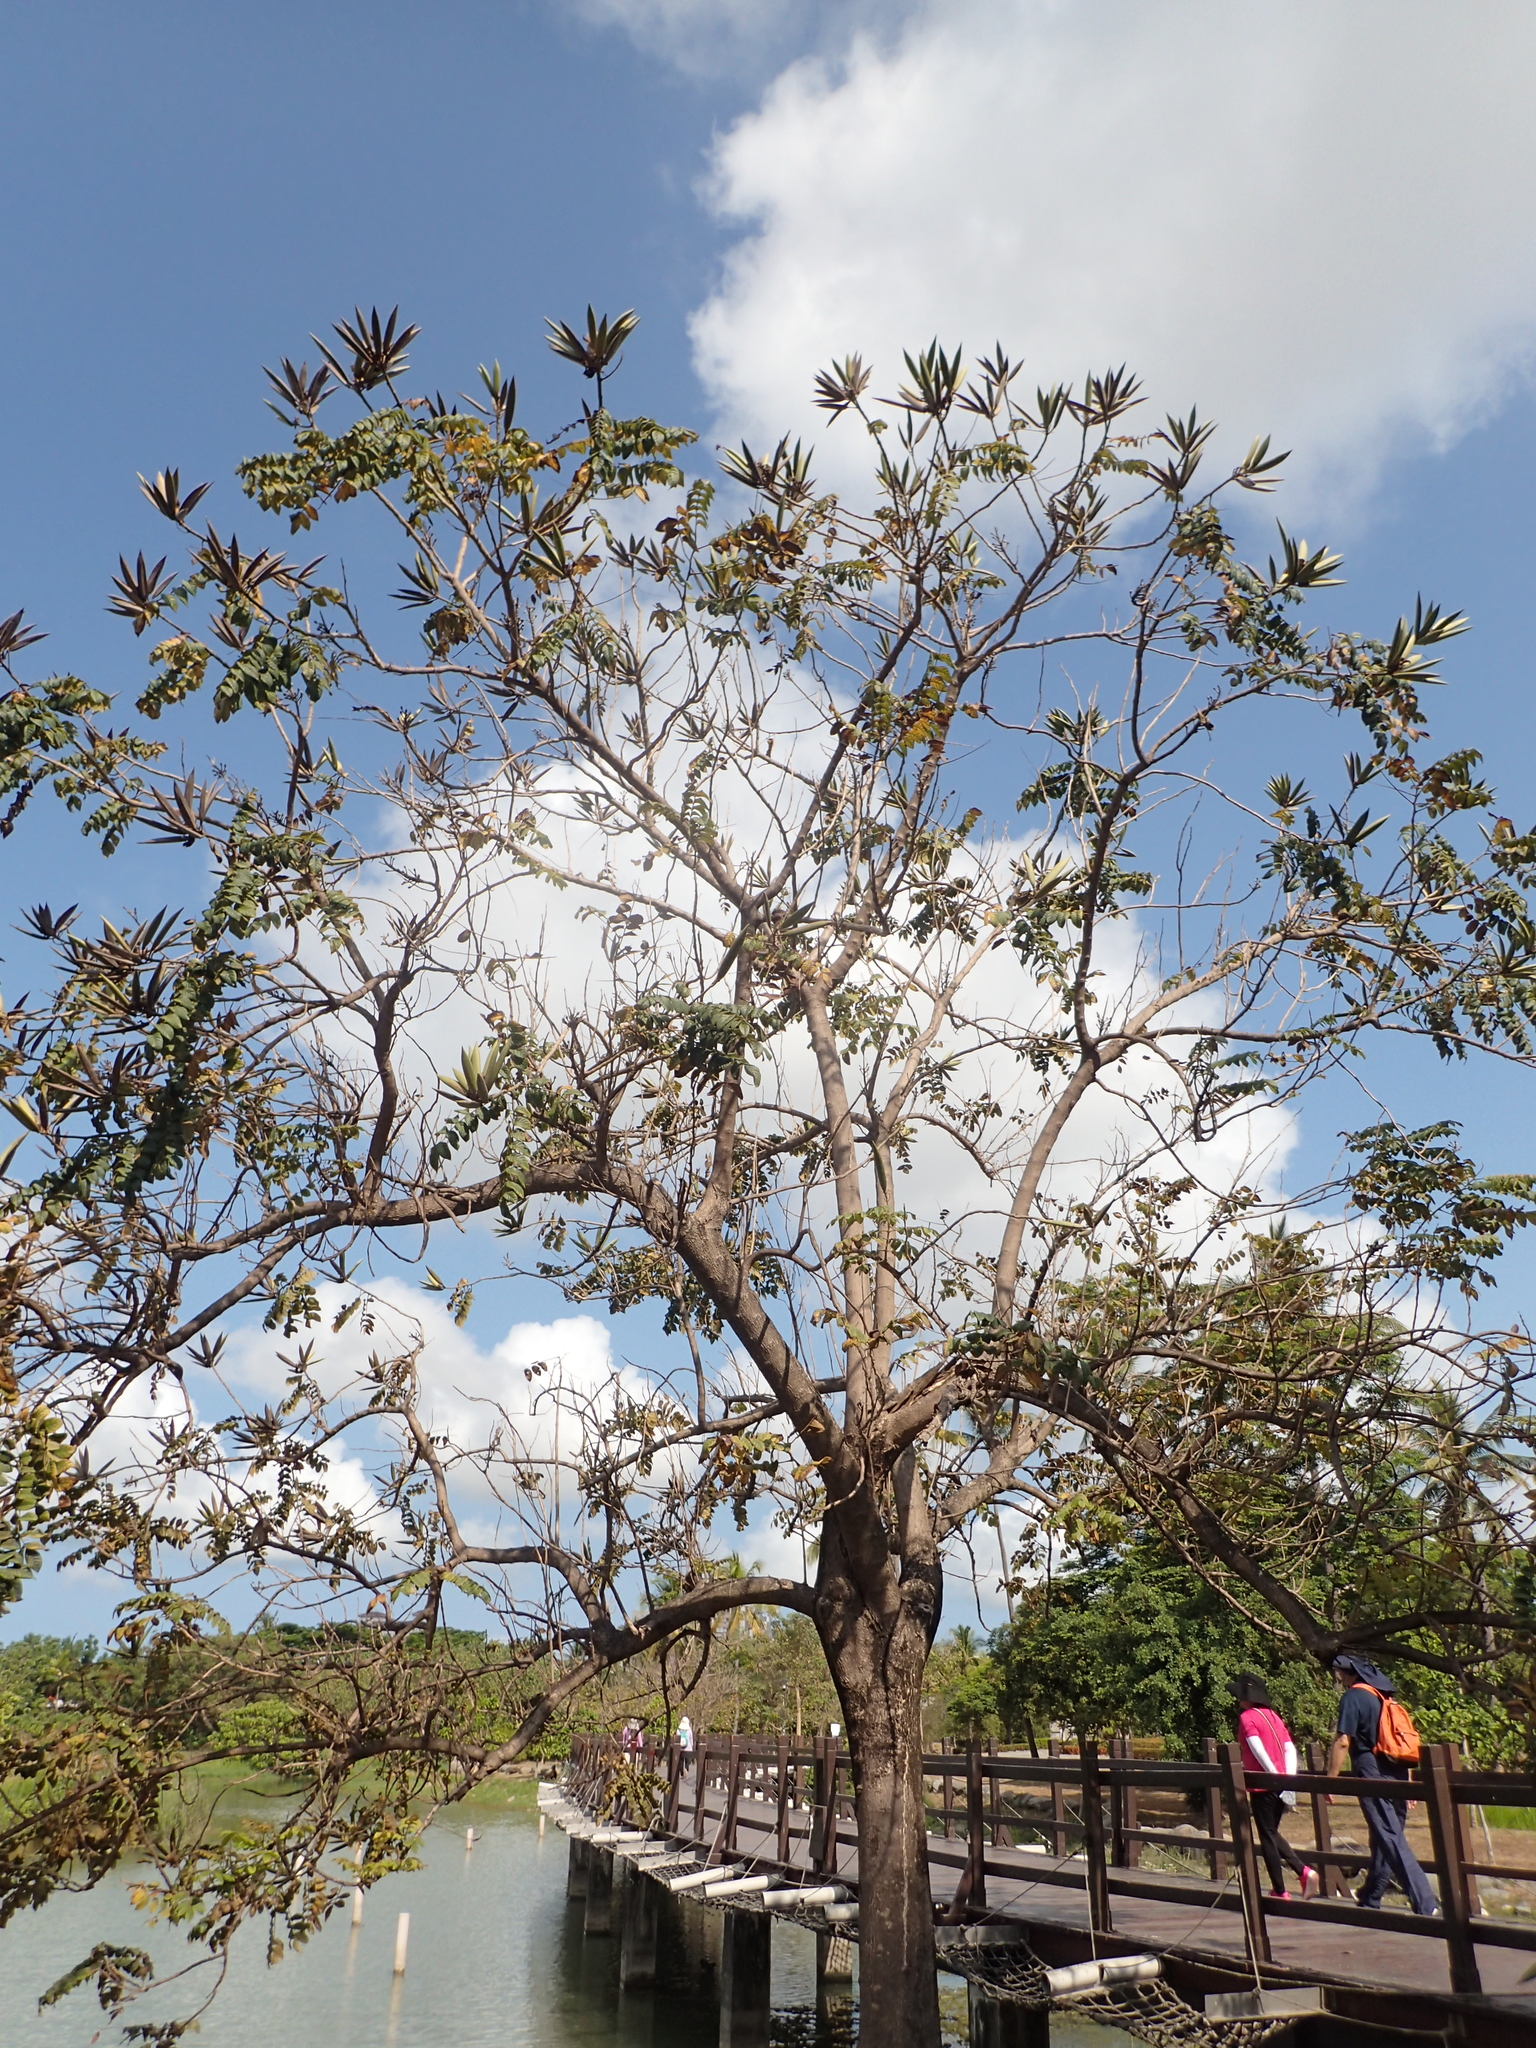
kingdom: Plantae
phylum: Tracheophyta
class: Magnoliopsida
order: Lamiales
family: Bignoniaceae
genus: Spathodea
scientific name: Spathodea campanulata
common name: African tuliptree
